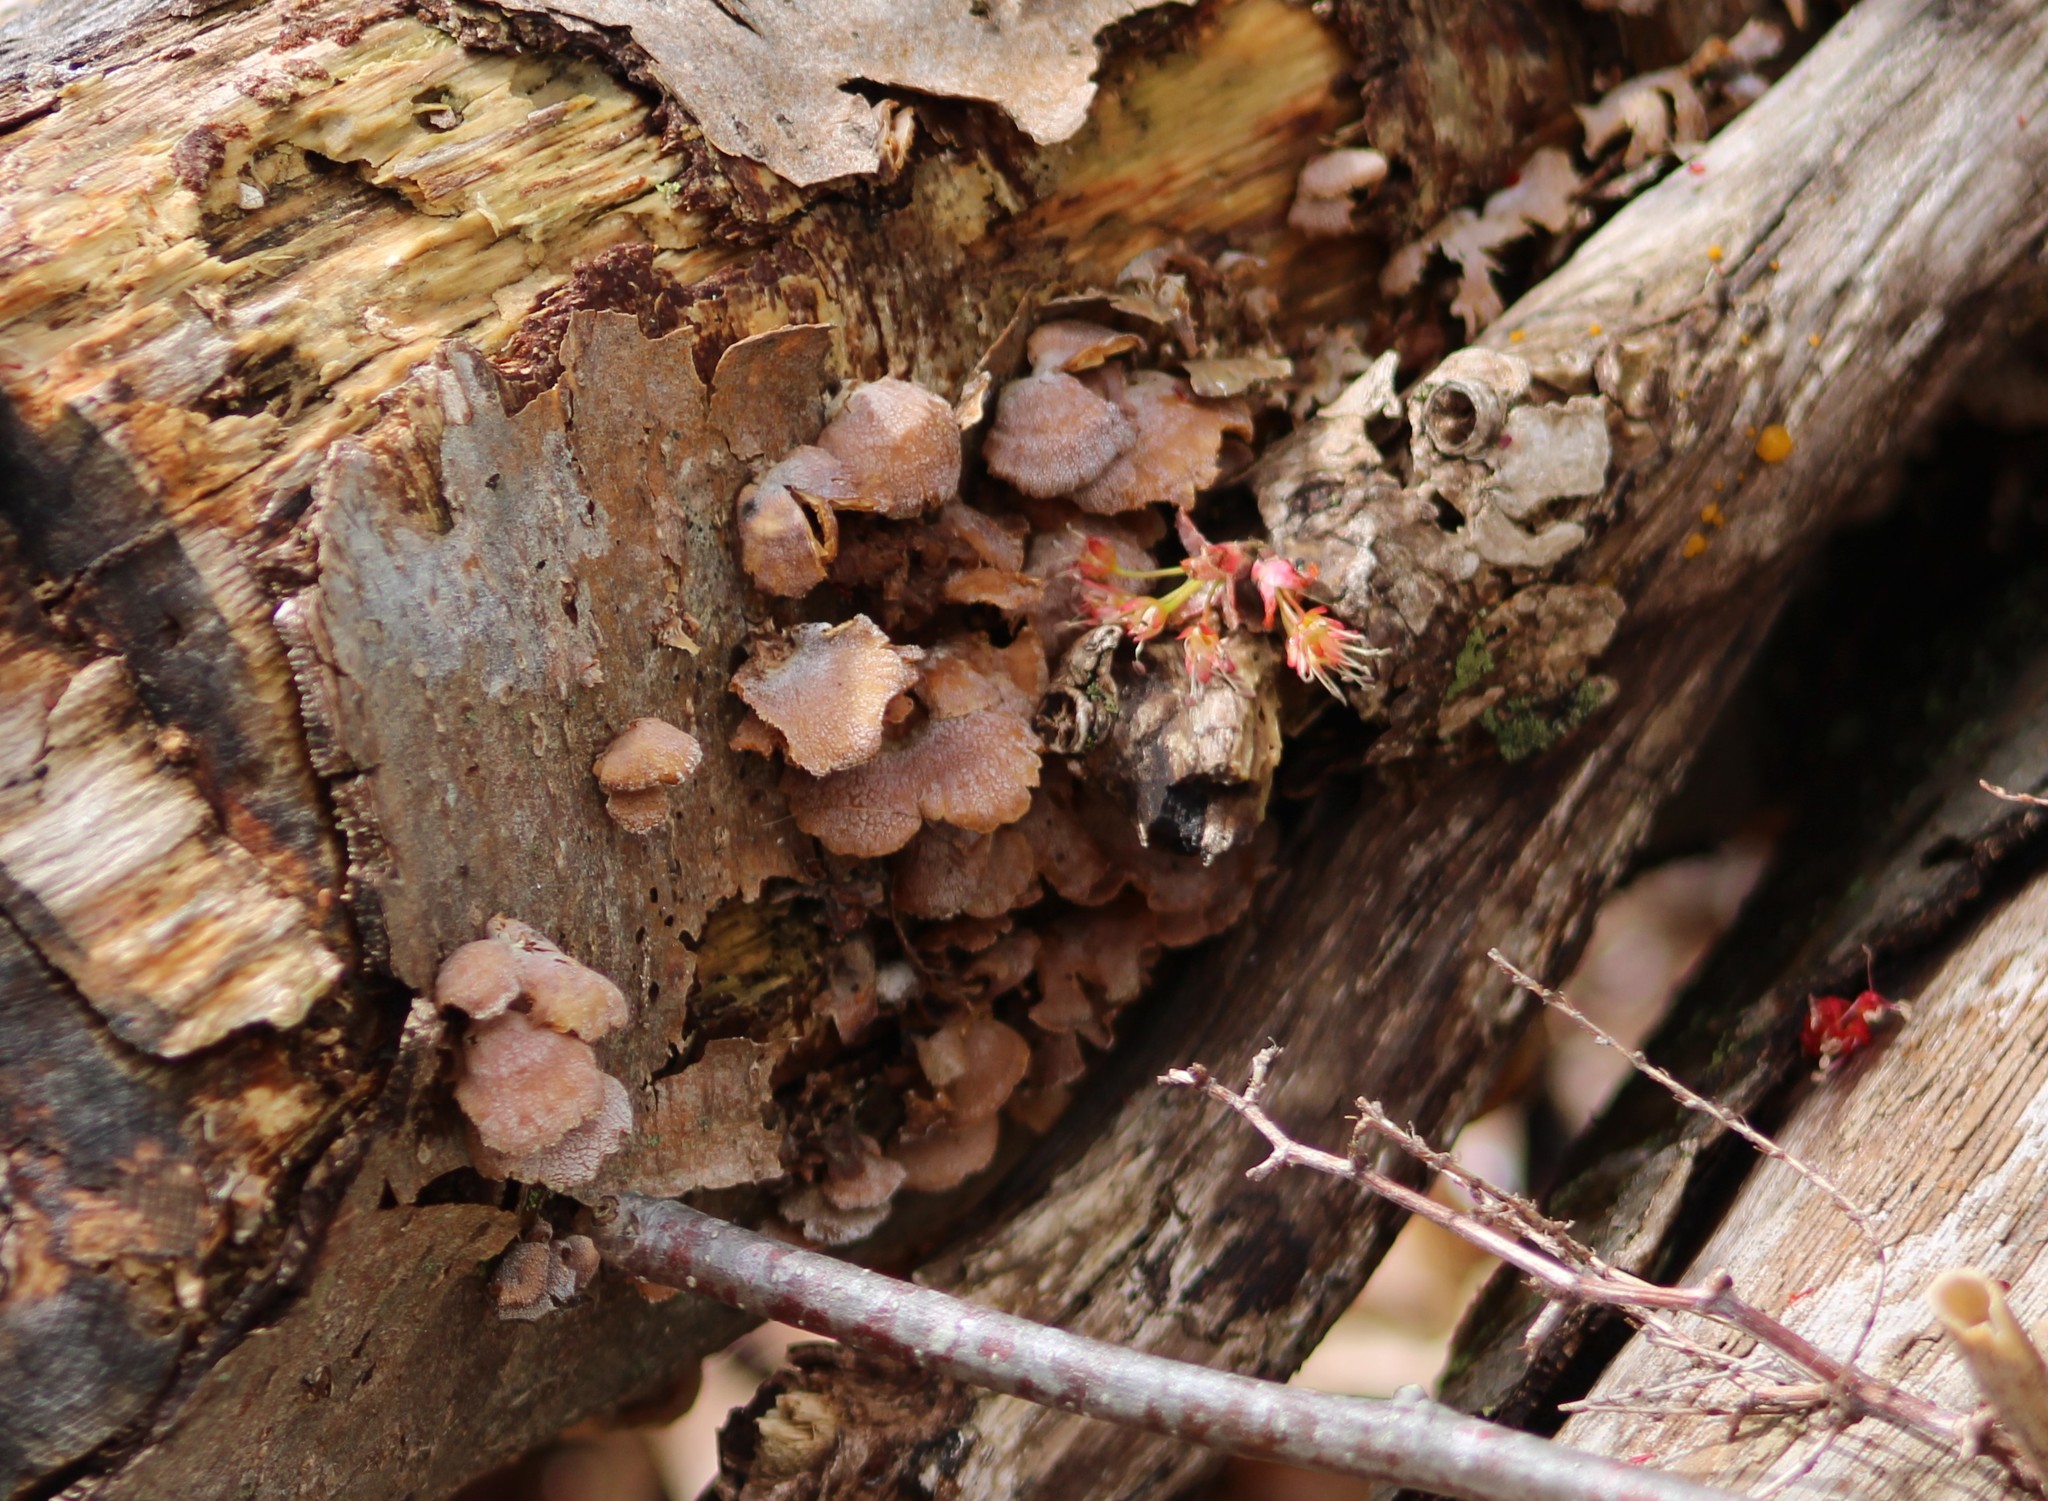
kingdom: Fungi
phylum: Basidiomycota
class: Agaricomycetes
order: Agaricales
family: Mycenaceae
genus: Panellus
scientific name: Panellus stipticus
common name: Bitter oysterling
